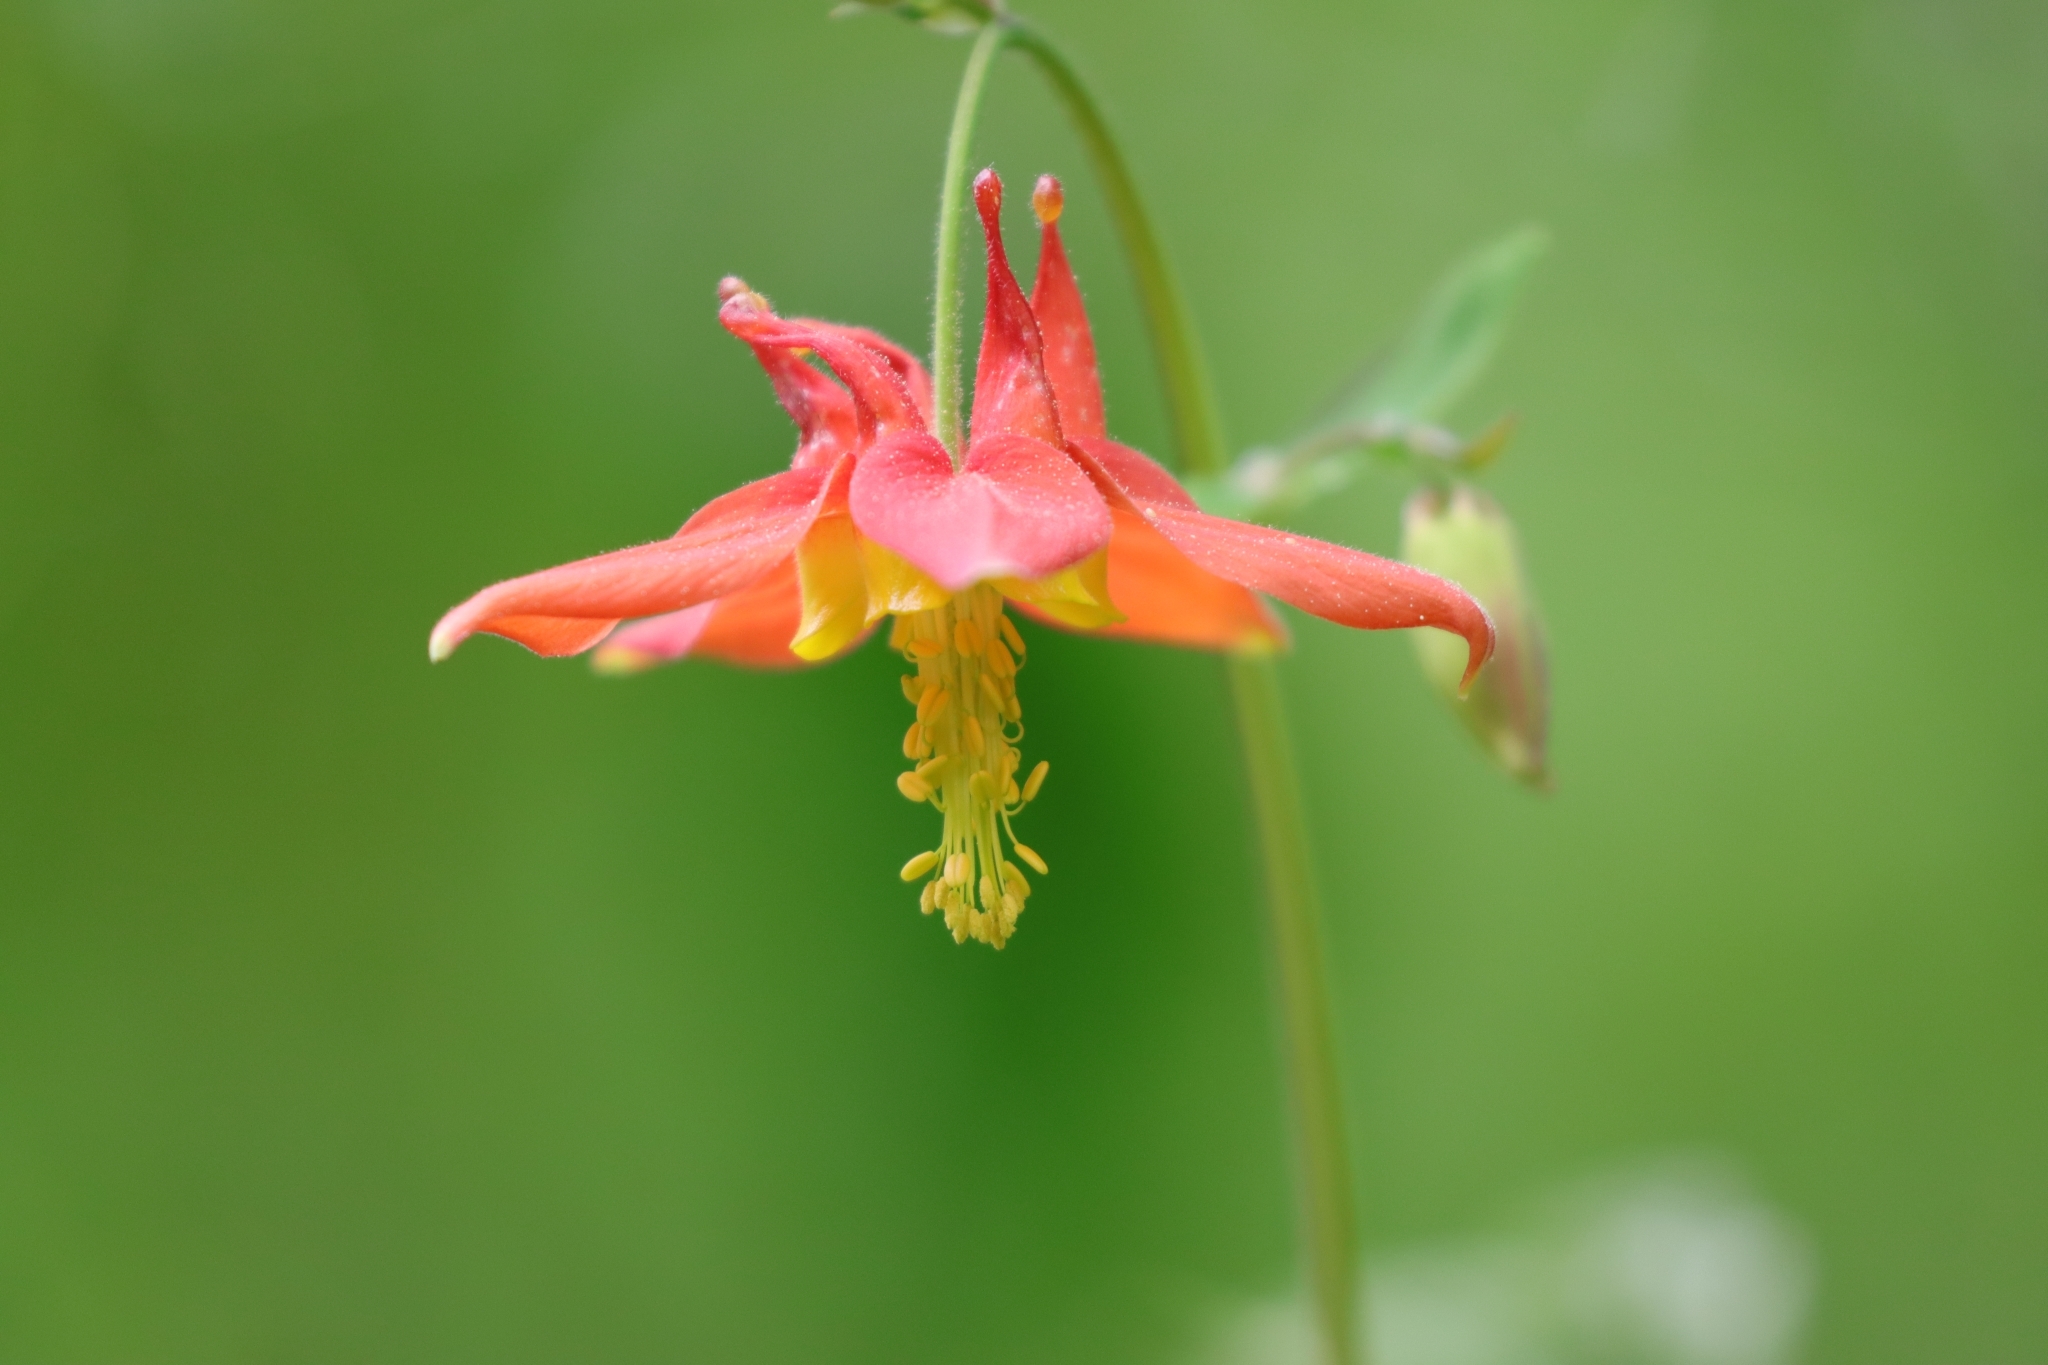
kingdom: Plantae
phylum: Tracheophyta
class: Magnoliopsida
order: Ranunculales
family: Ranunculaceae
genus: Aquilegia
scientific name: Aquilegia formosa
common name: Sitka columbine
